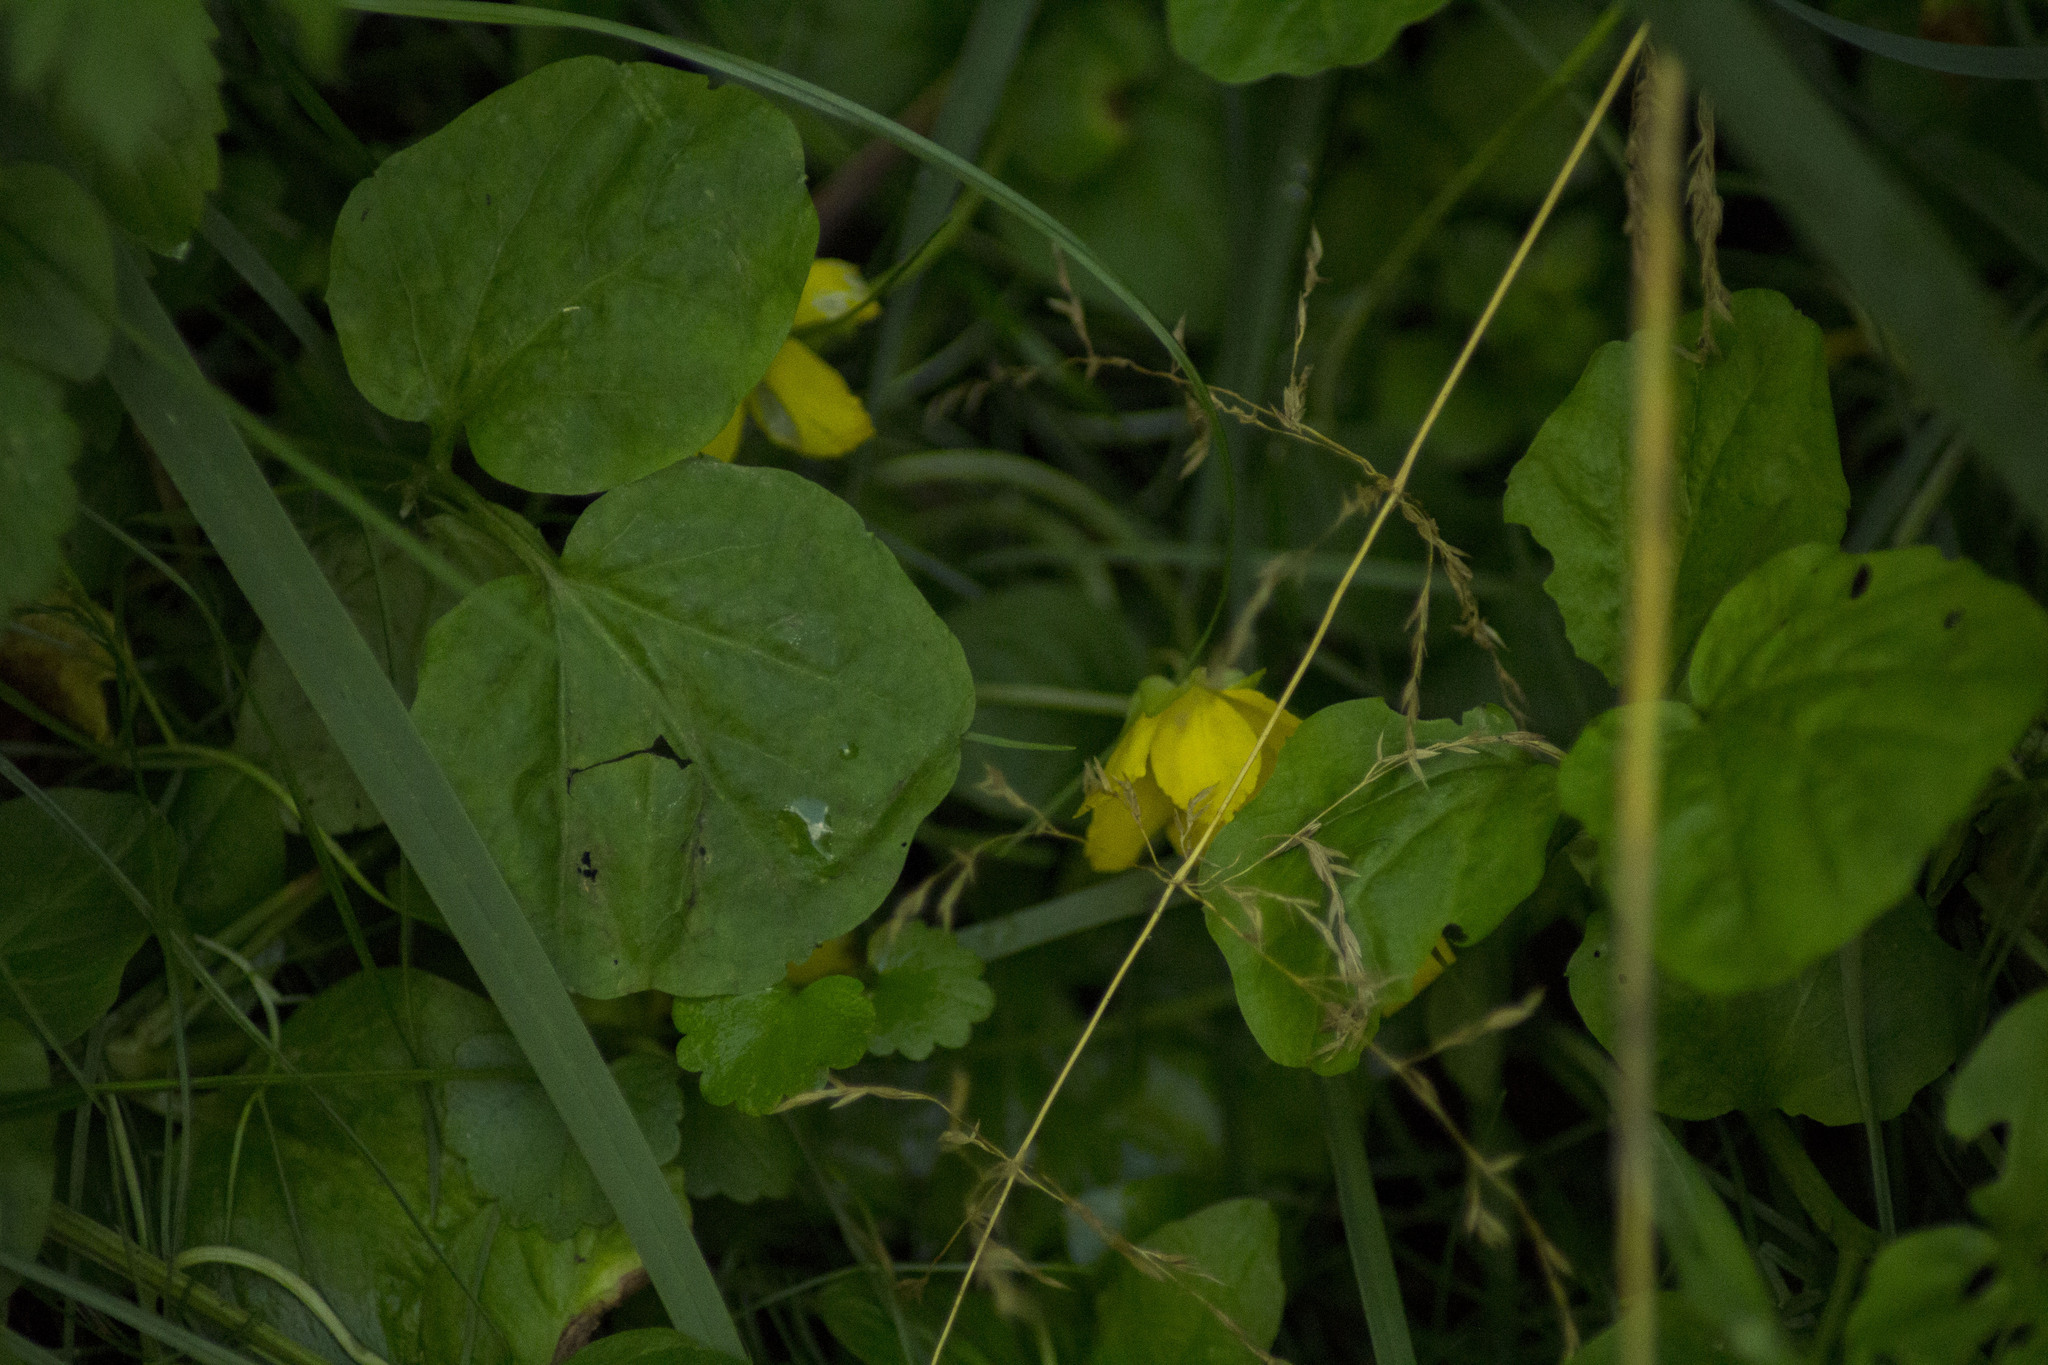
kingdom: Plantae
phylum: Tracheophyta
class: Magnoliopsida
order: Ericales
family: Primulaceae
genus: Lysimachia
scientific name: Lysimachia nummularia
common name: Moneywort
